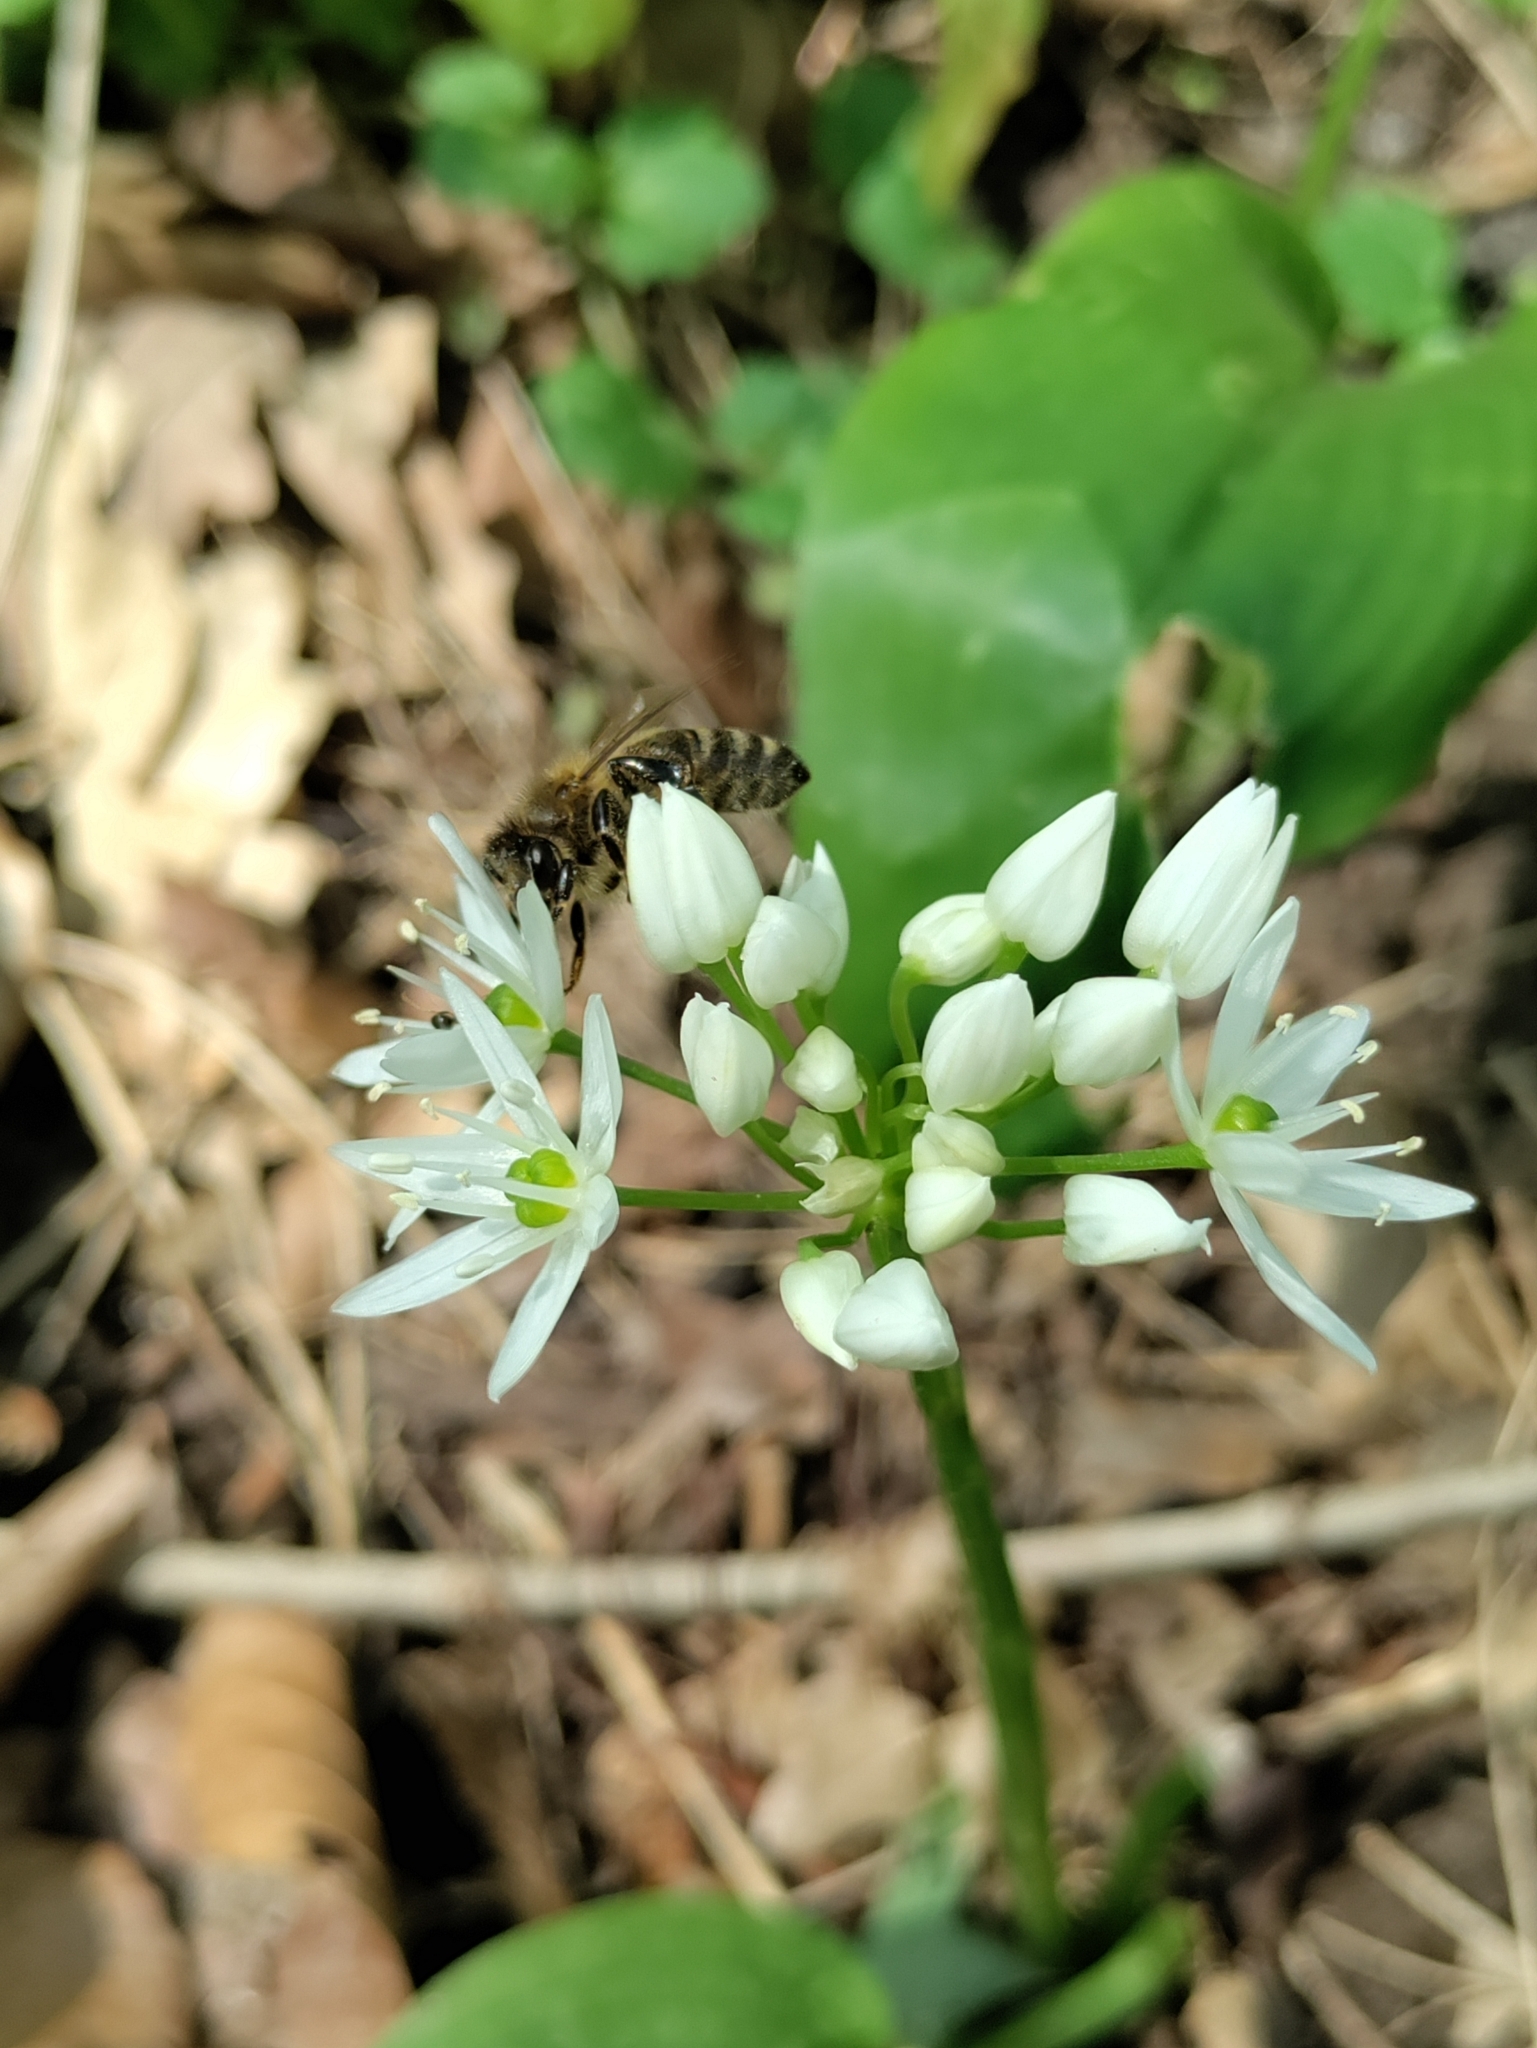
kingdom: Plantae
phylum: Tracheophyta
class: Liliopsida
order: Asparagales
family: Amaryllidaceae
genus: Allium
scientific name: Allium ursinum
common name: Ramsons
